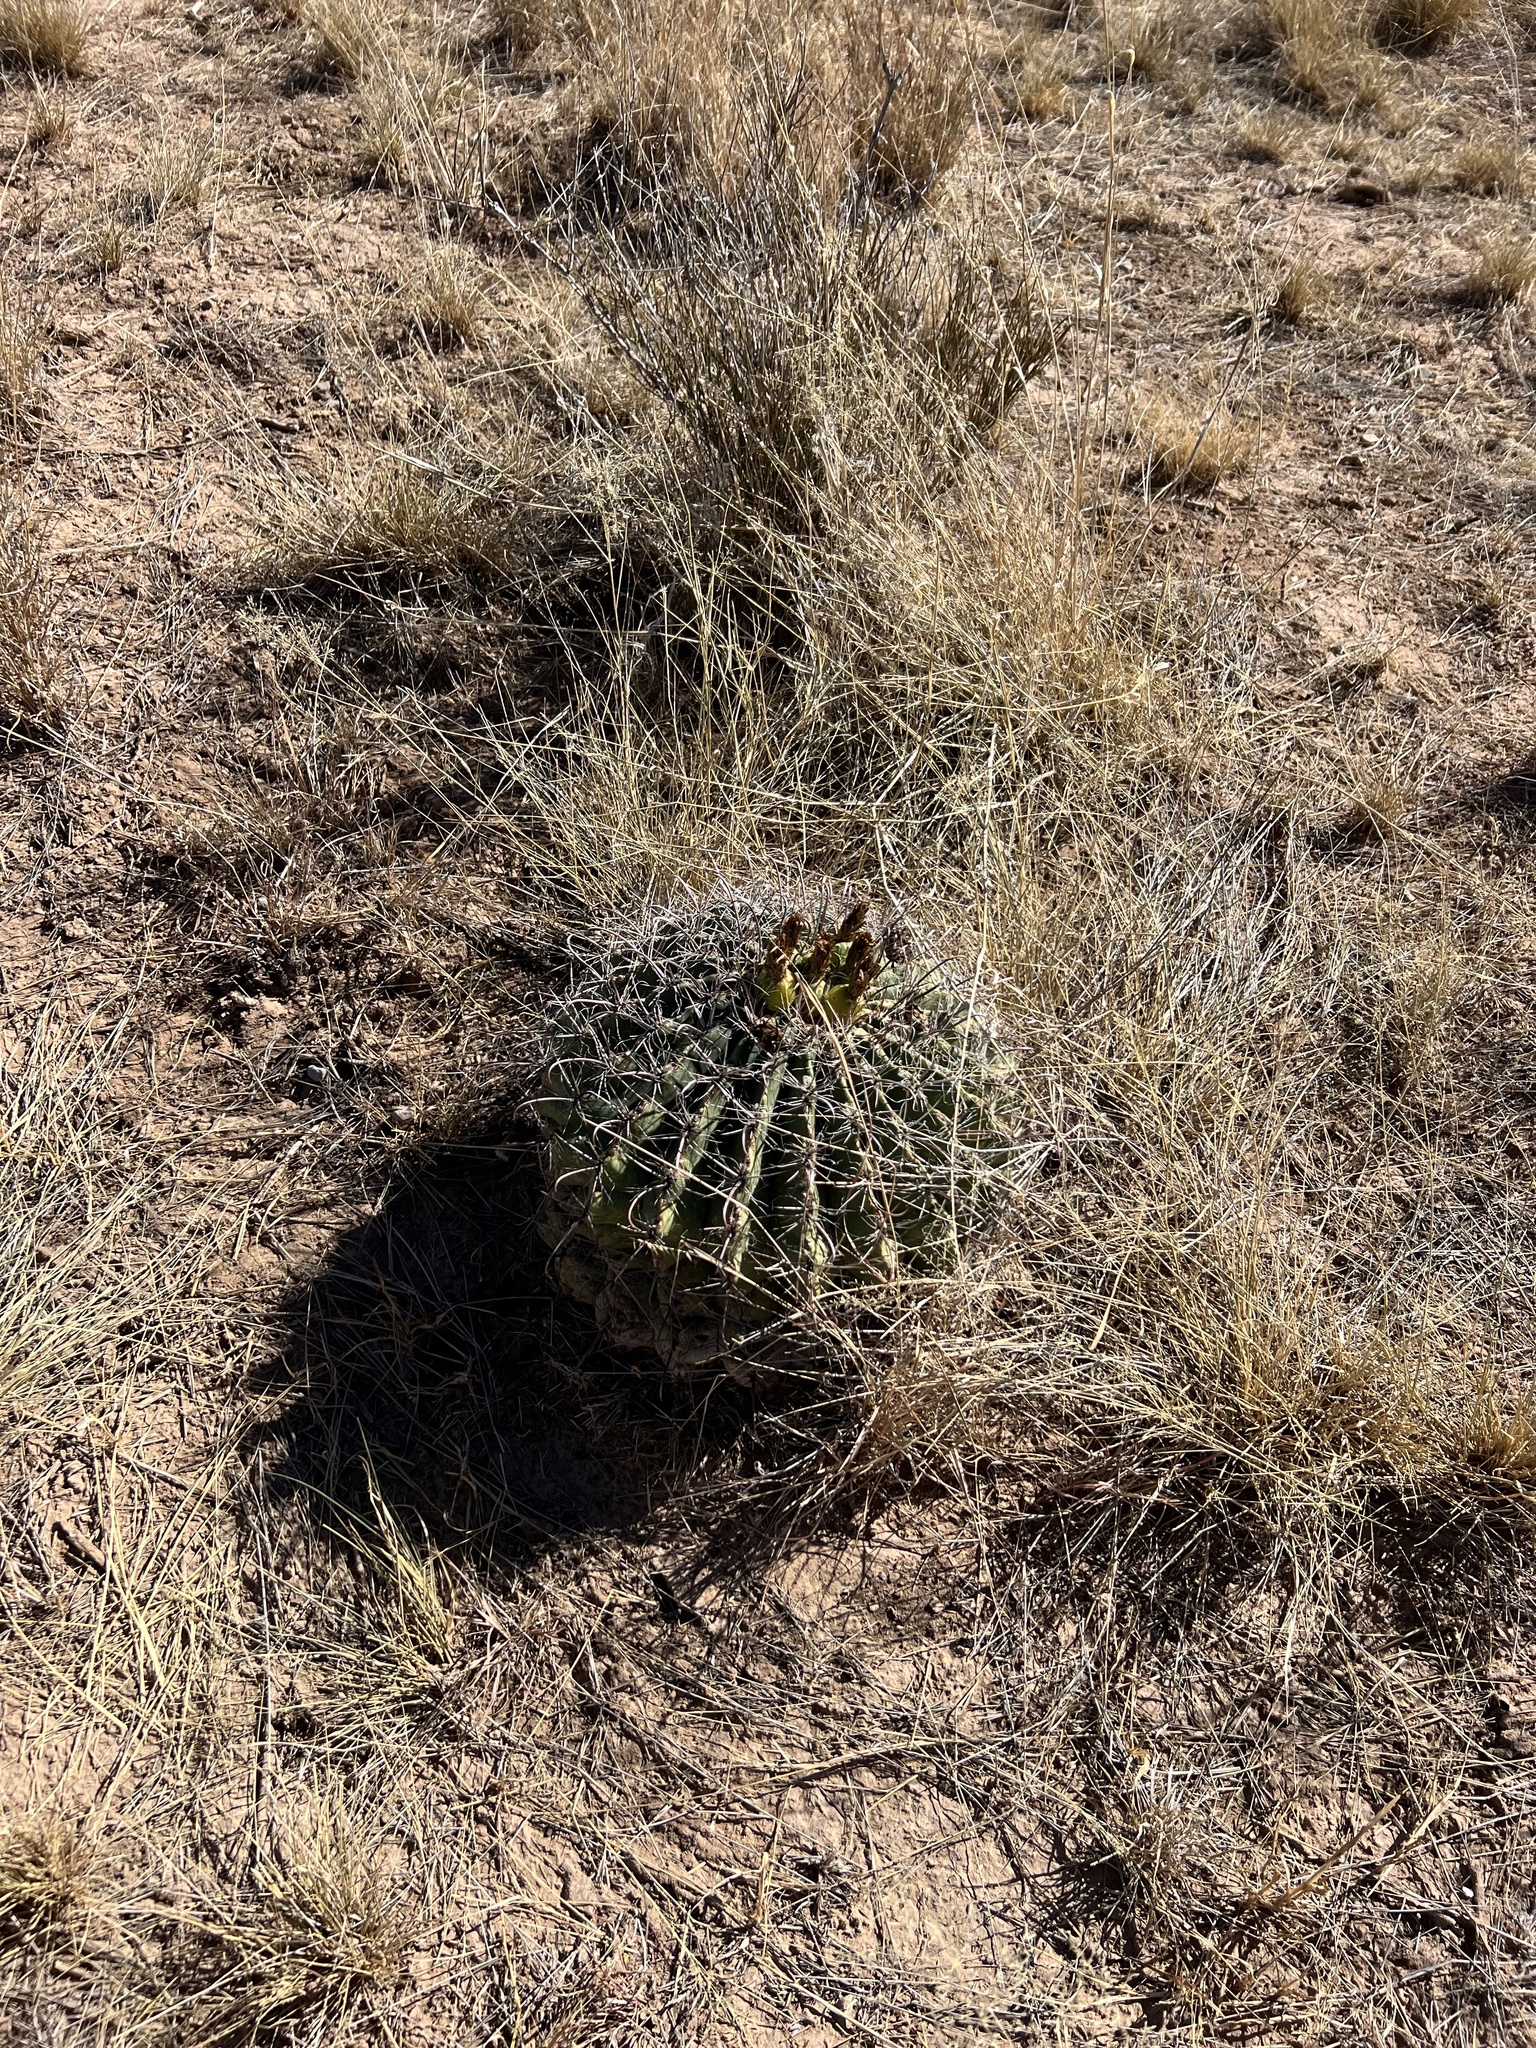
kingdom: Plantae
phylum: Tracheophyta
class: Magnoliopsida
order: Caryophyllales
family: Cactaceae
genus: Ferocactus
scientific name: Ferocactus wislizeni
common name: Candy barrel cactus
